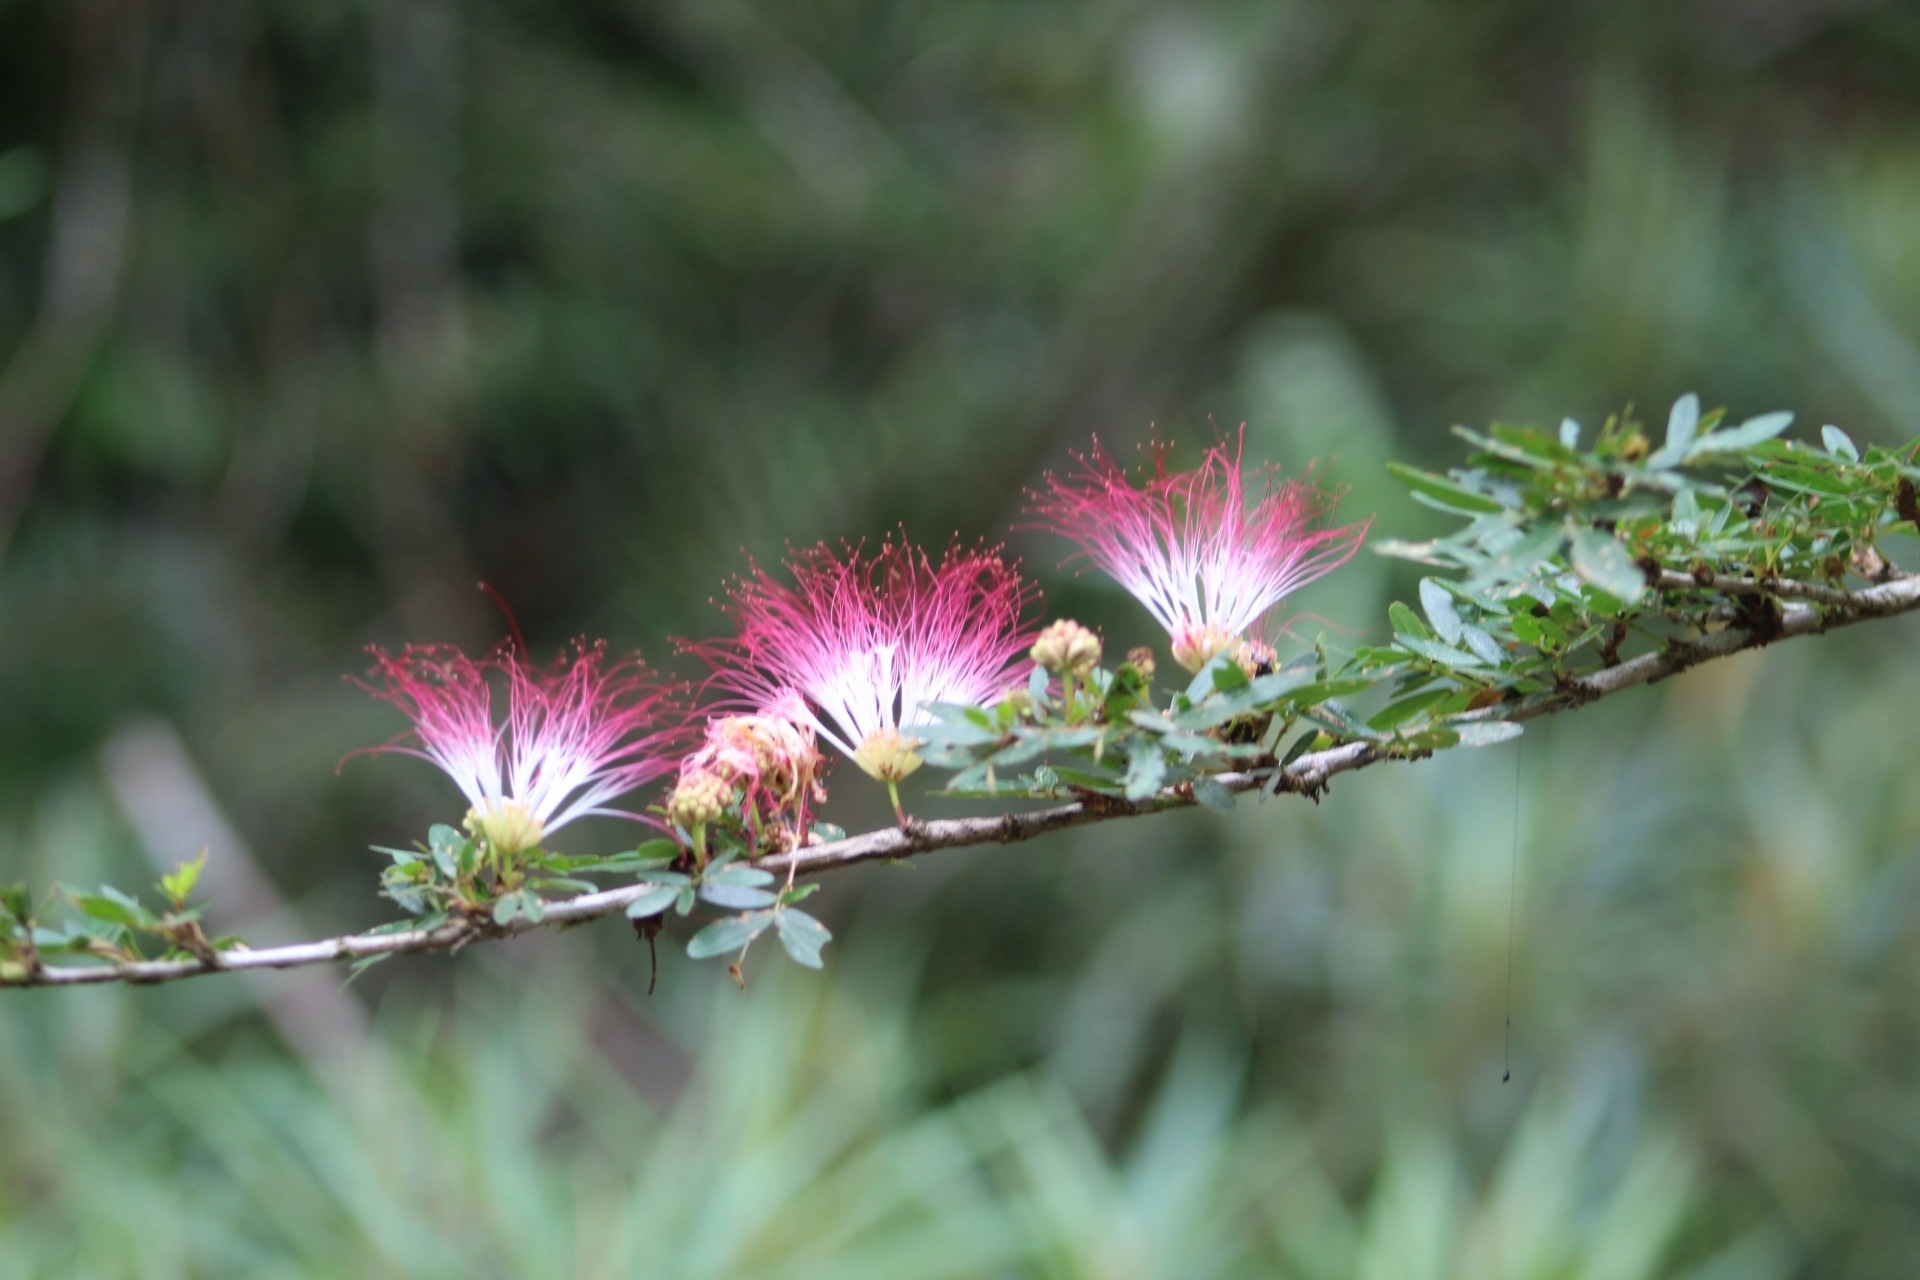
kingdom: Plantae
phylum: Tracheophyta
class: Magnoliopsida
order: Fabales
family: Fabaceae
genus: Calliandra
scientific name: Calliandra surinamensis
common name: Pink powder puff
